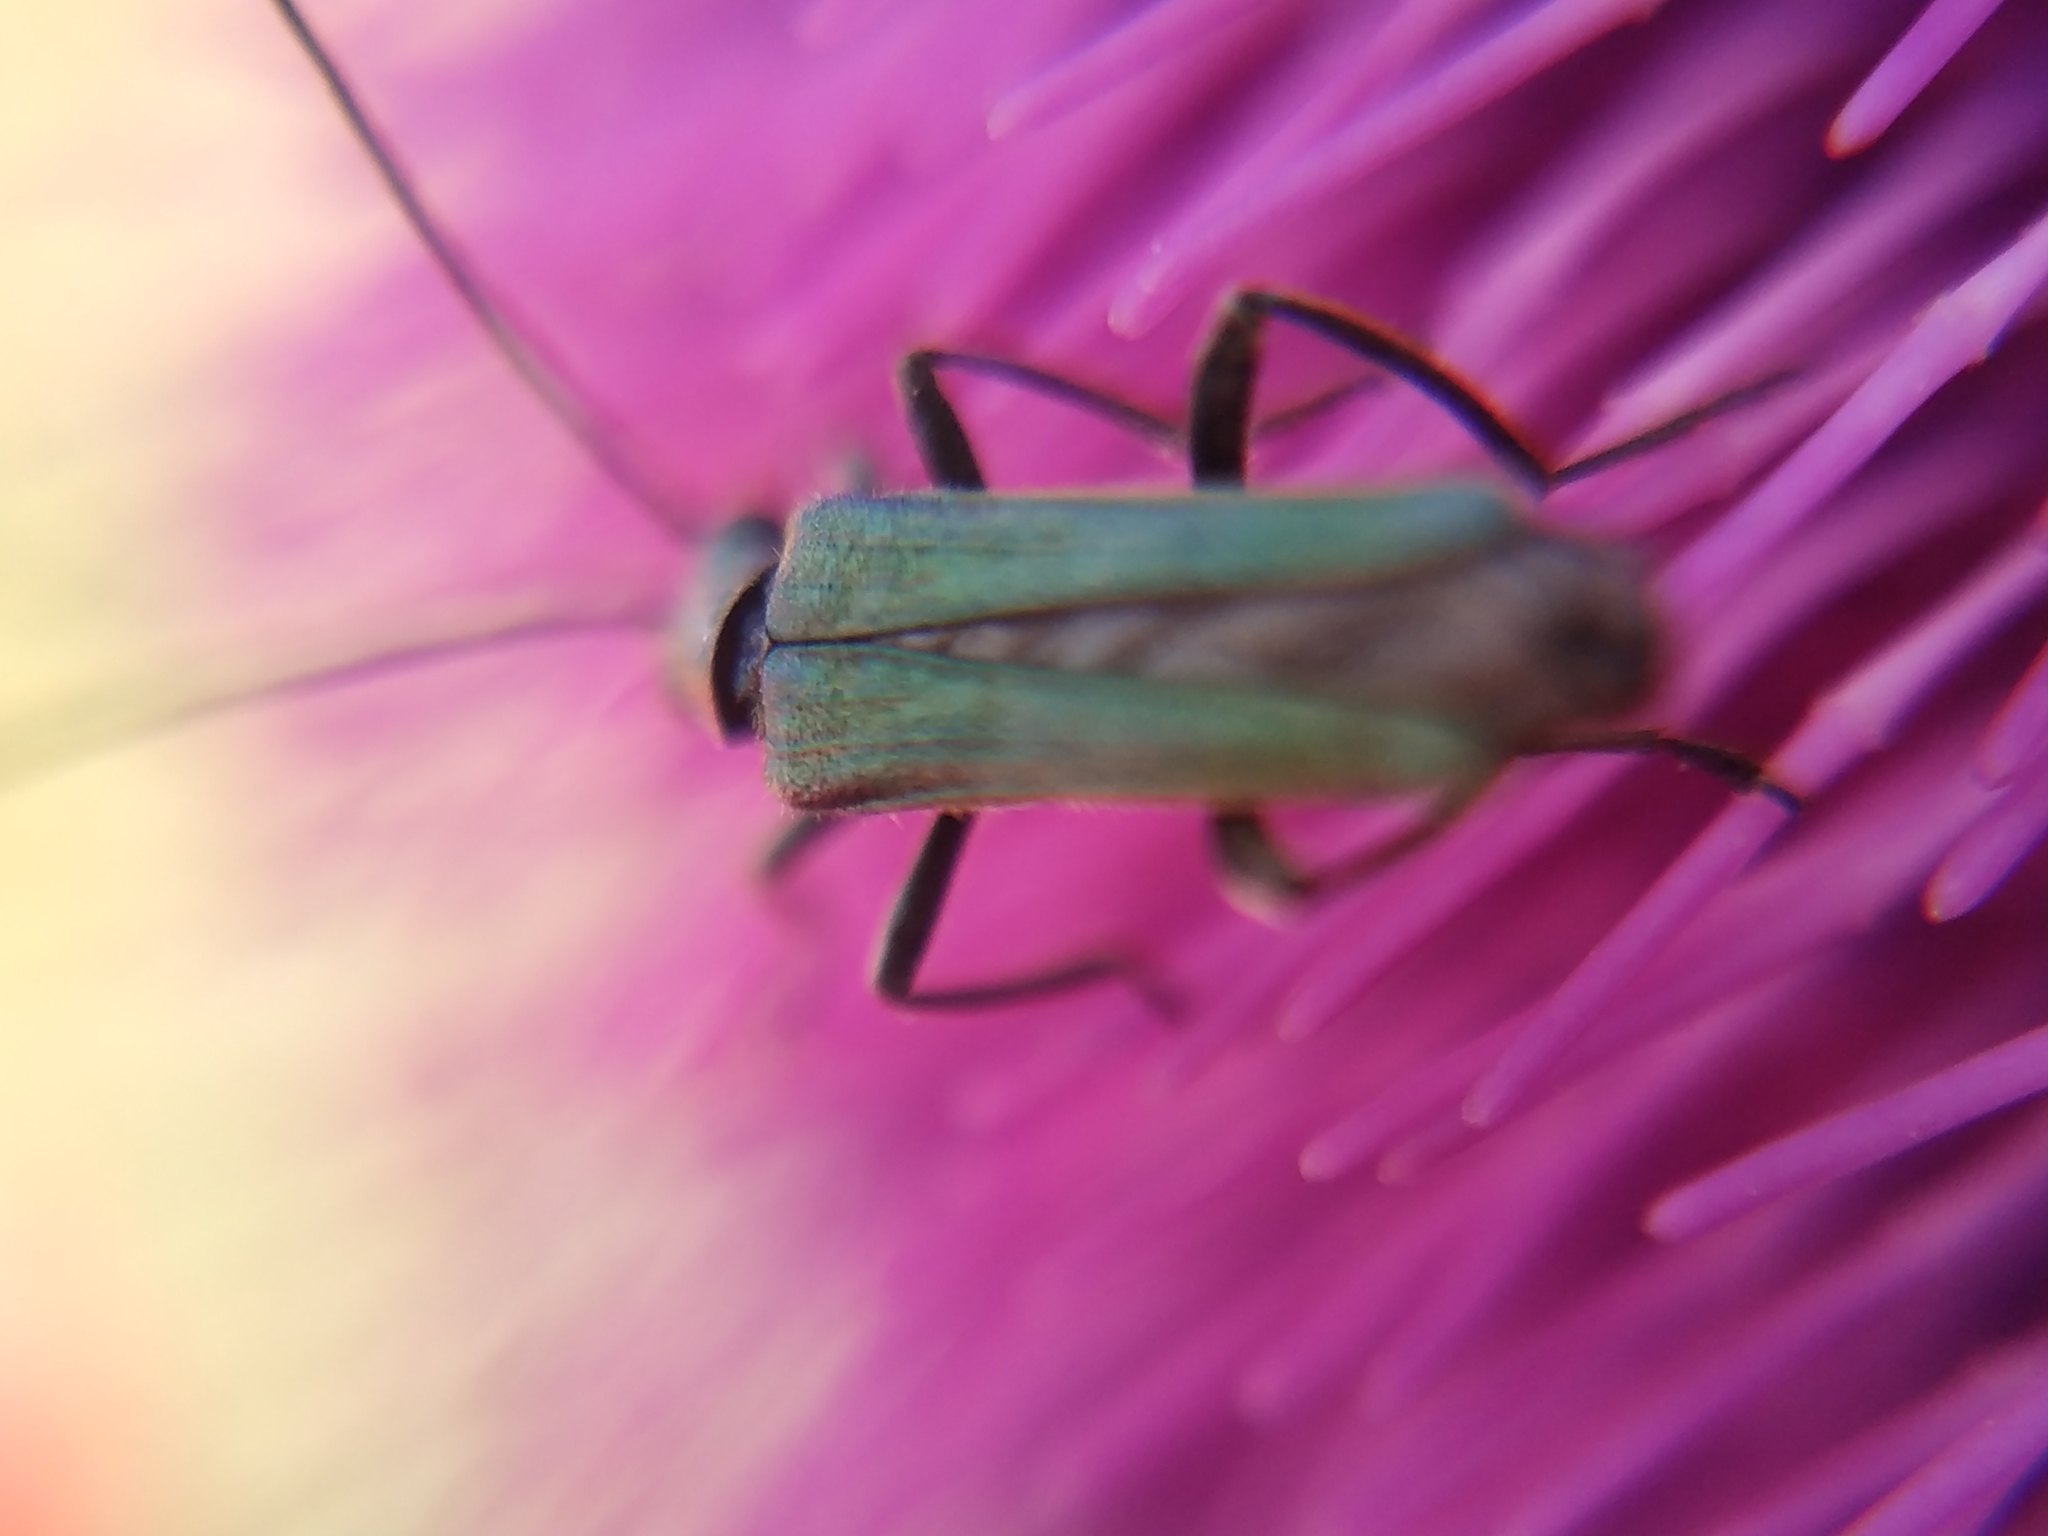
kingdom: Animalia
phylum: Arthropoda
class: Insecta
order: Coleoptera
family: Oedemeridae
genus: Oedemera
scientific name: Oedemera nobilis
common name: Swollen-thighed beetle
